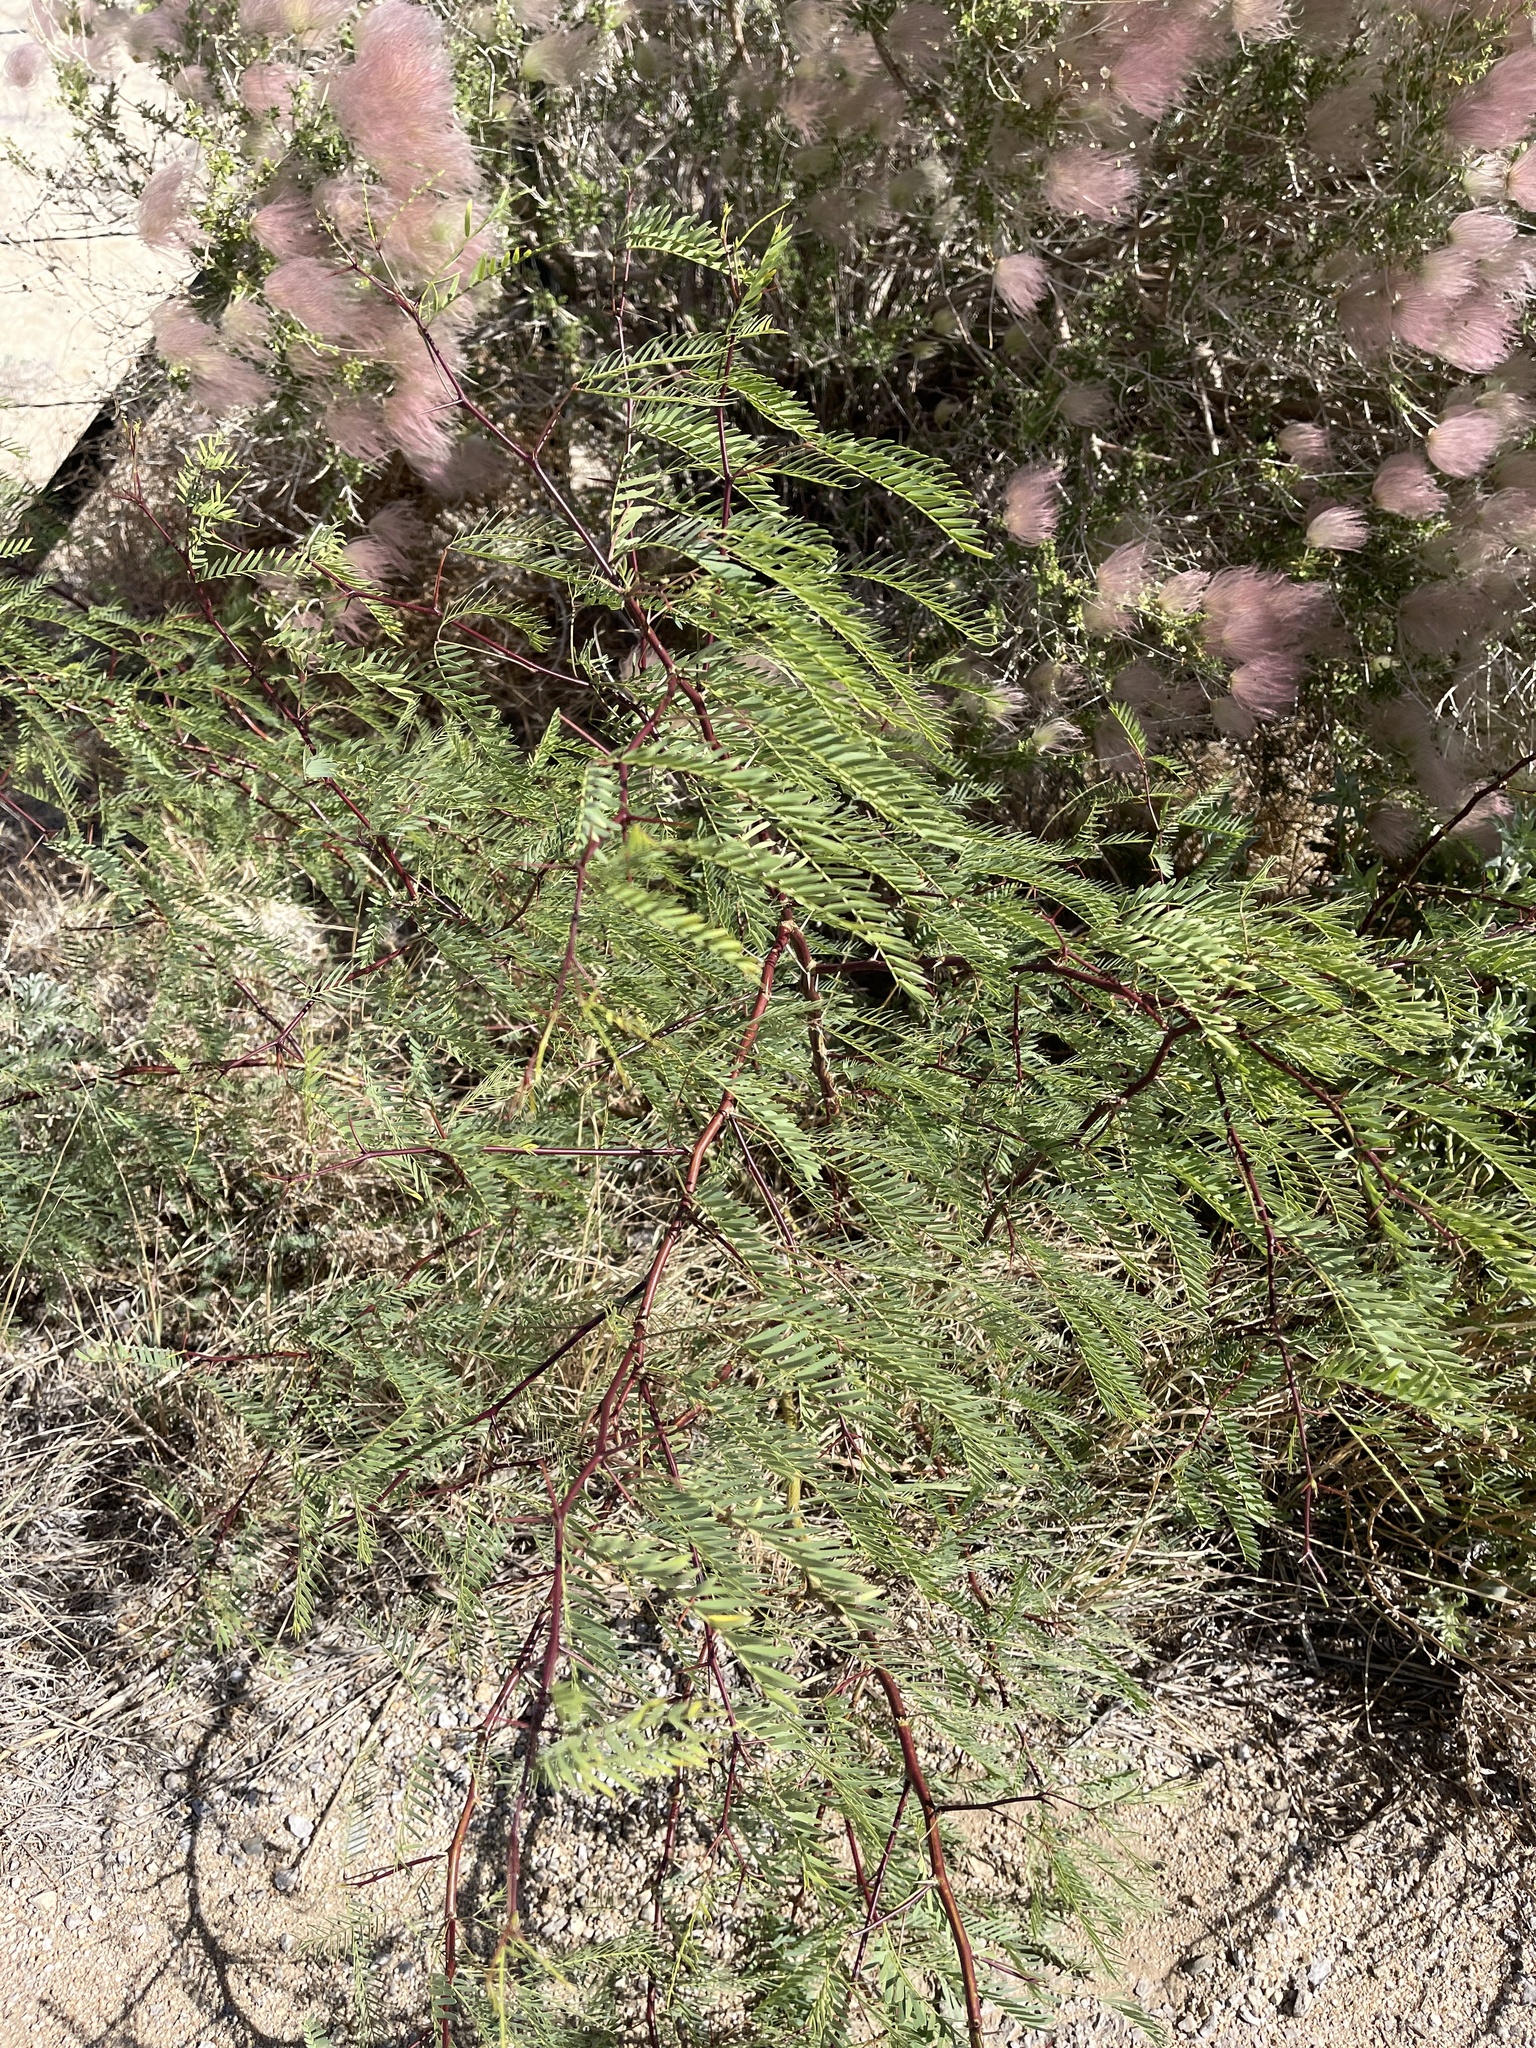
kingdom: Plantae
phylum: Tracheophyta
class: Magnoliopsida
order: Fabales
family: Fabaceae
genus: Prosopis
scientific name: Prosopis glandulosa
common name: Honey mesquite
